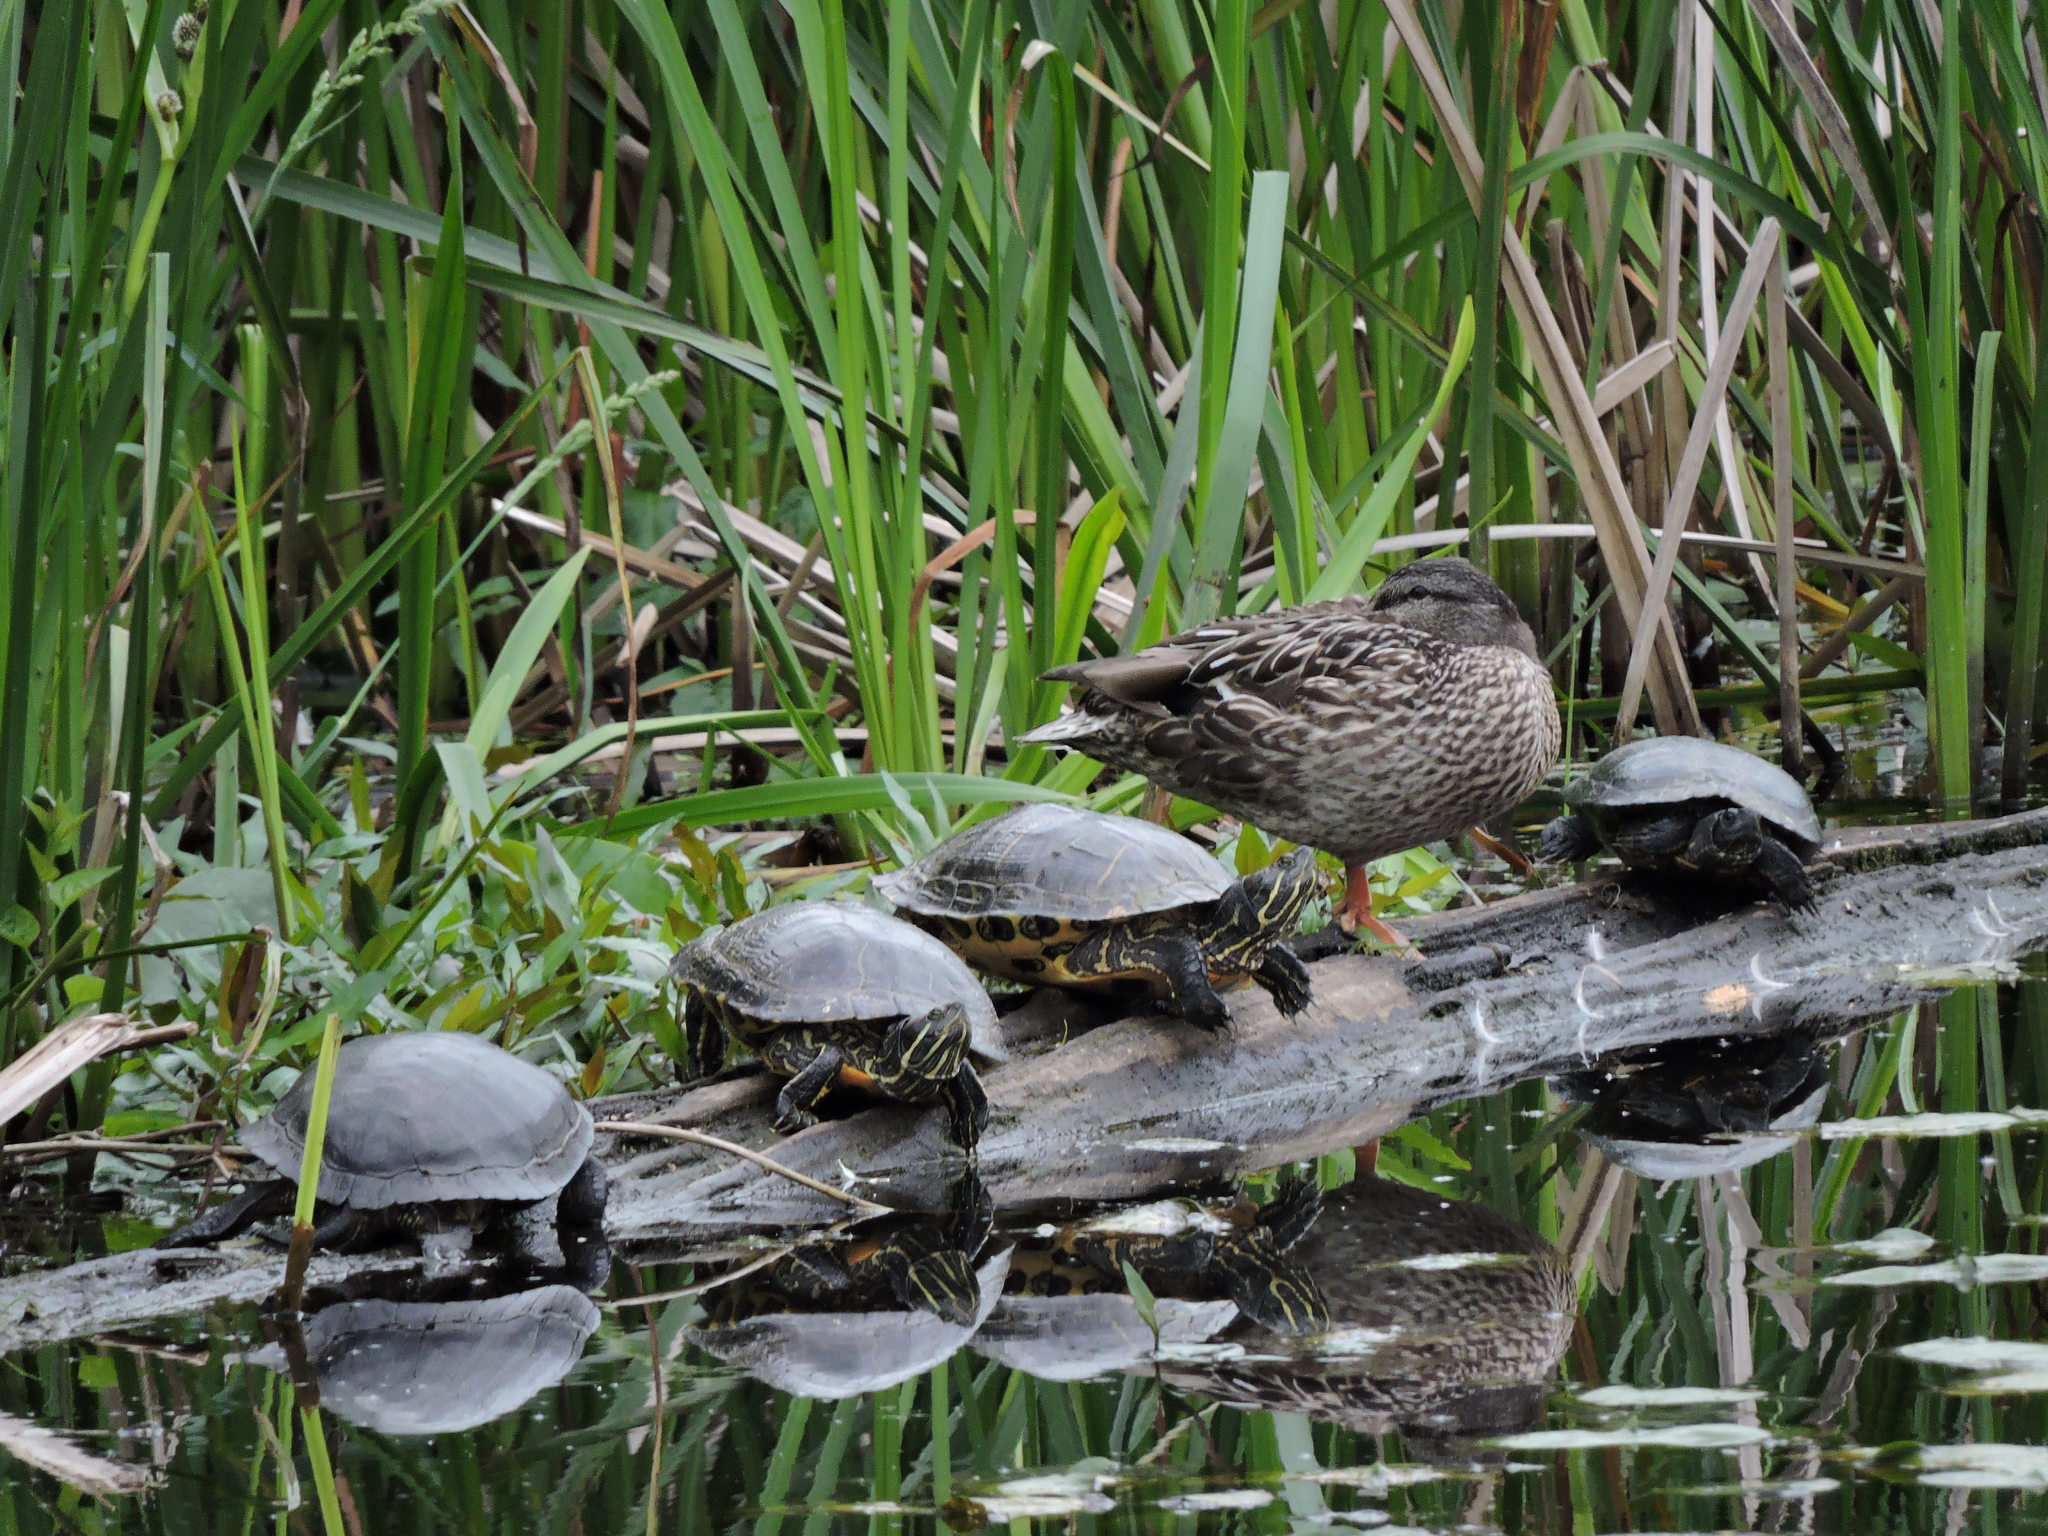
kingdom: Animalia
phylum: Chordata
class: Testudines
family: Emydidae
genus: Trachemys
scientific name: Trachemys scripta
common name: Slider
